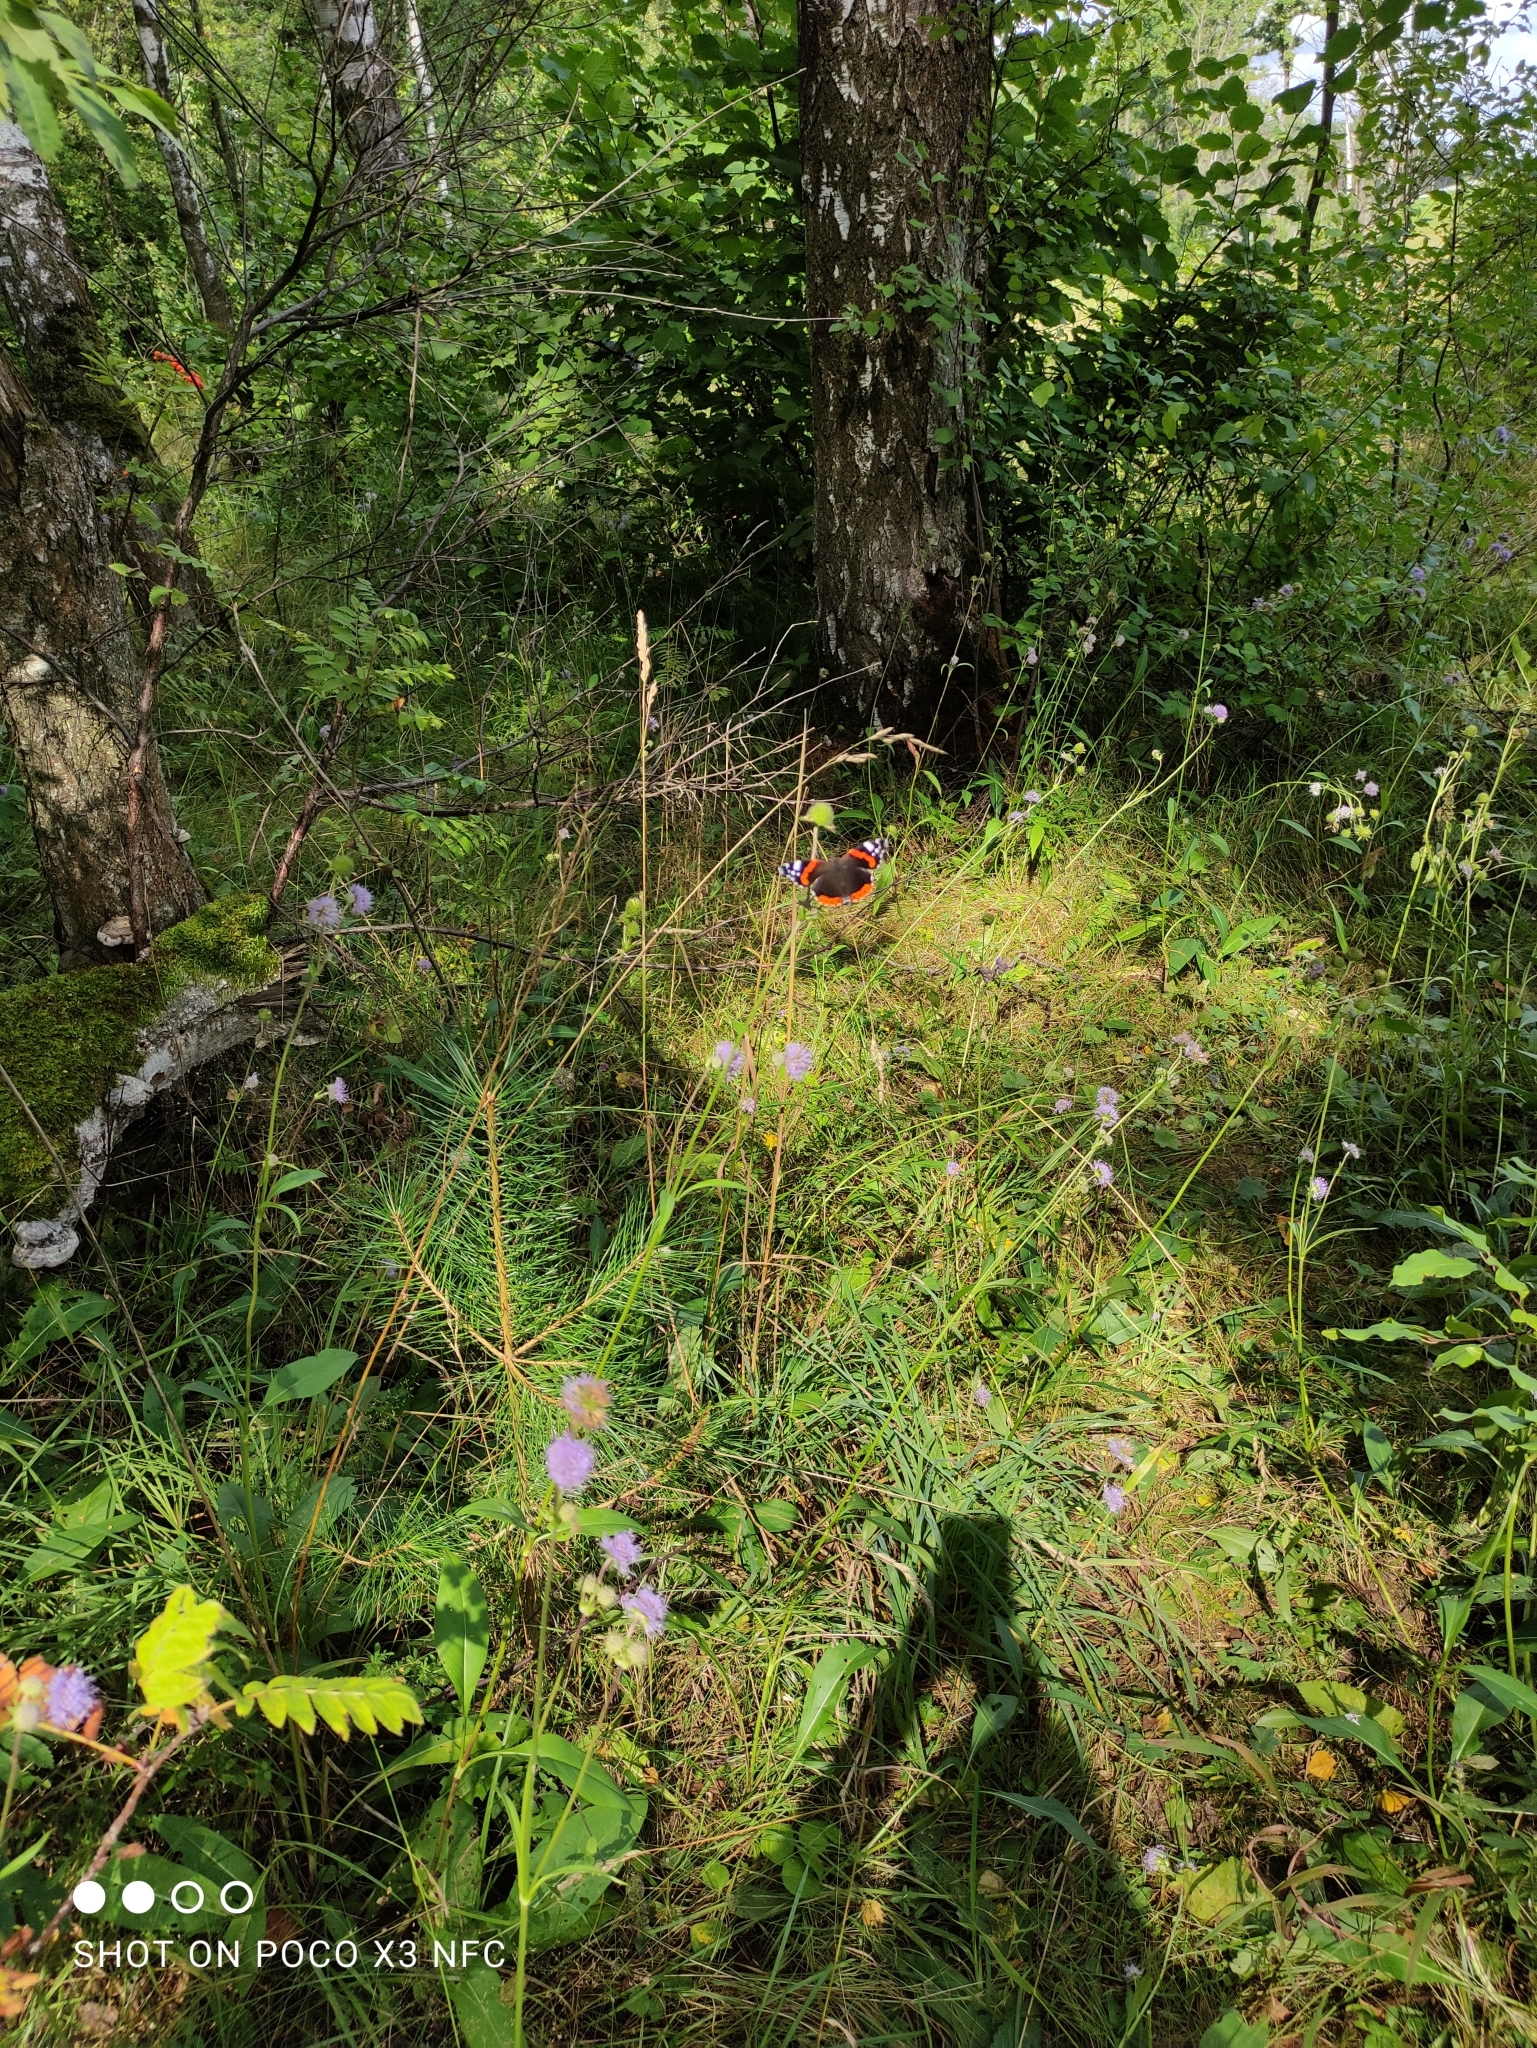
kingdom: Animalia
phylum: Arthropoda
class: Insecta
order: Lepidoptera
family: Nymphalidae
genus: Vanessa
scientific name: Vanessa atalanta
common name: Red admiral
